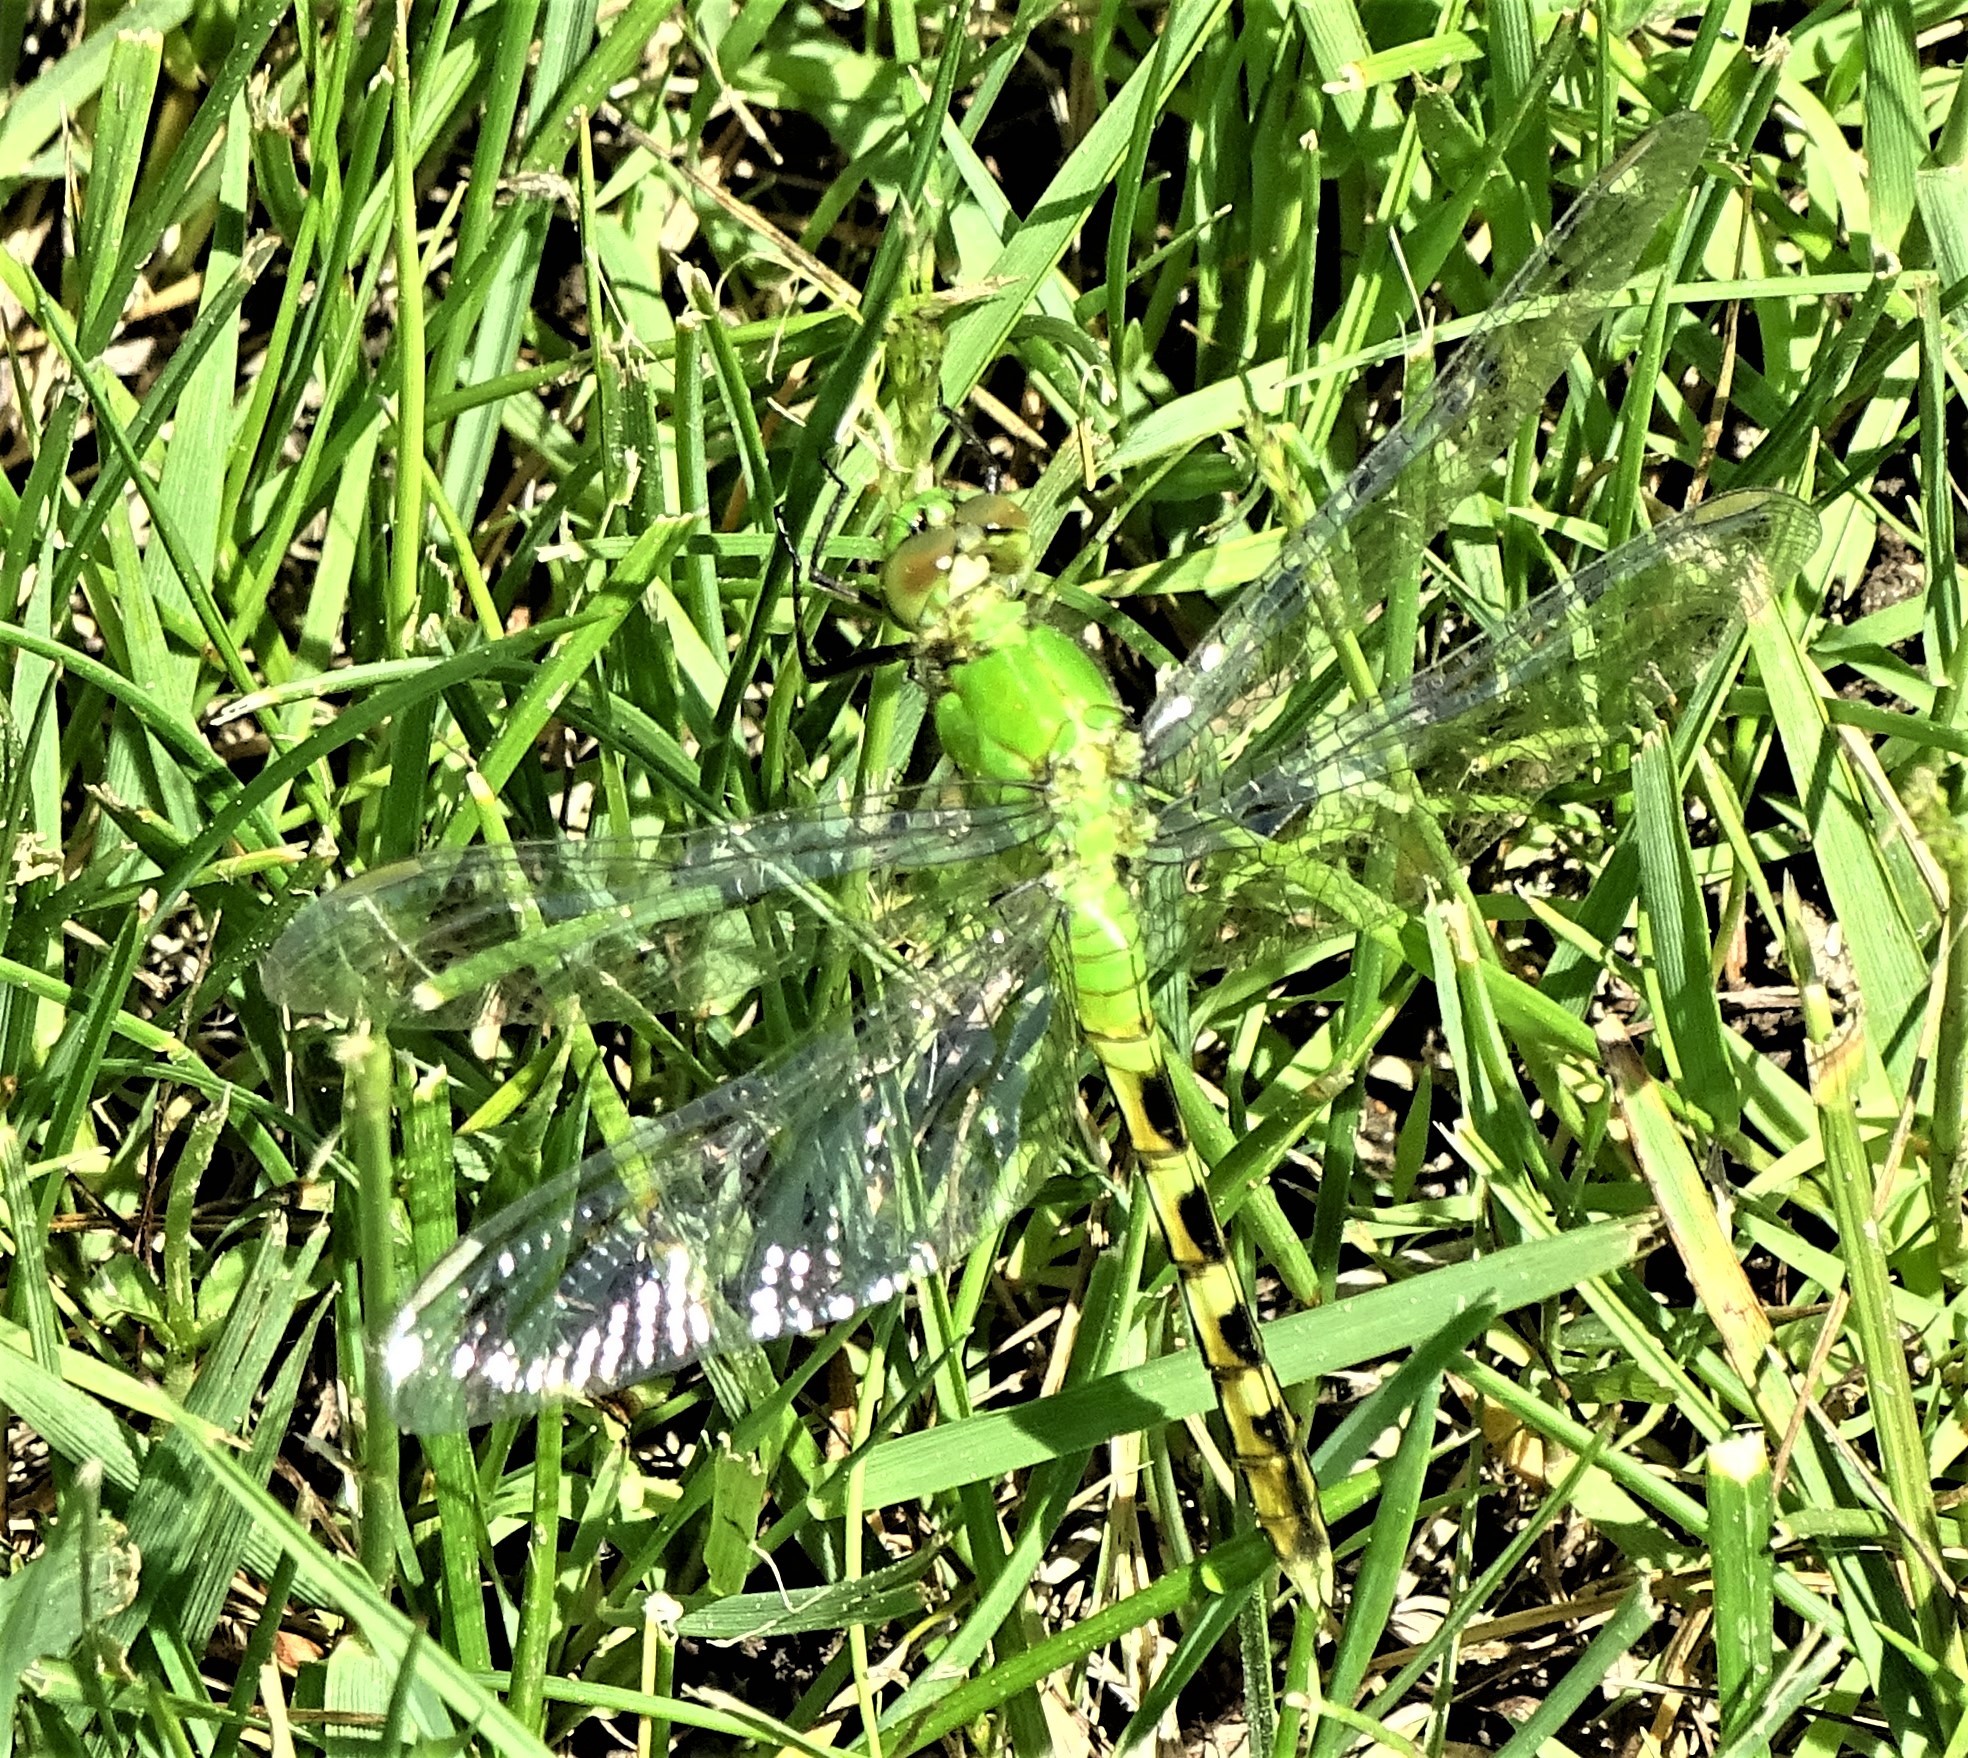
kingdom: Animalia
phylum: Arthropoda
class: Insecta
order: Odonata
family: Libellulidae
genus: Erythemis
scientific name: Erythemis simplicicollis
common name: Eastern pondhawk
